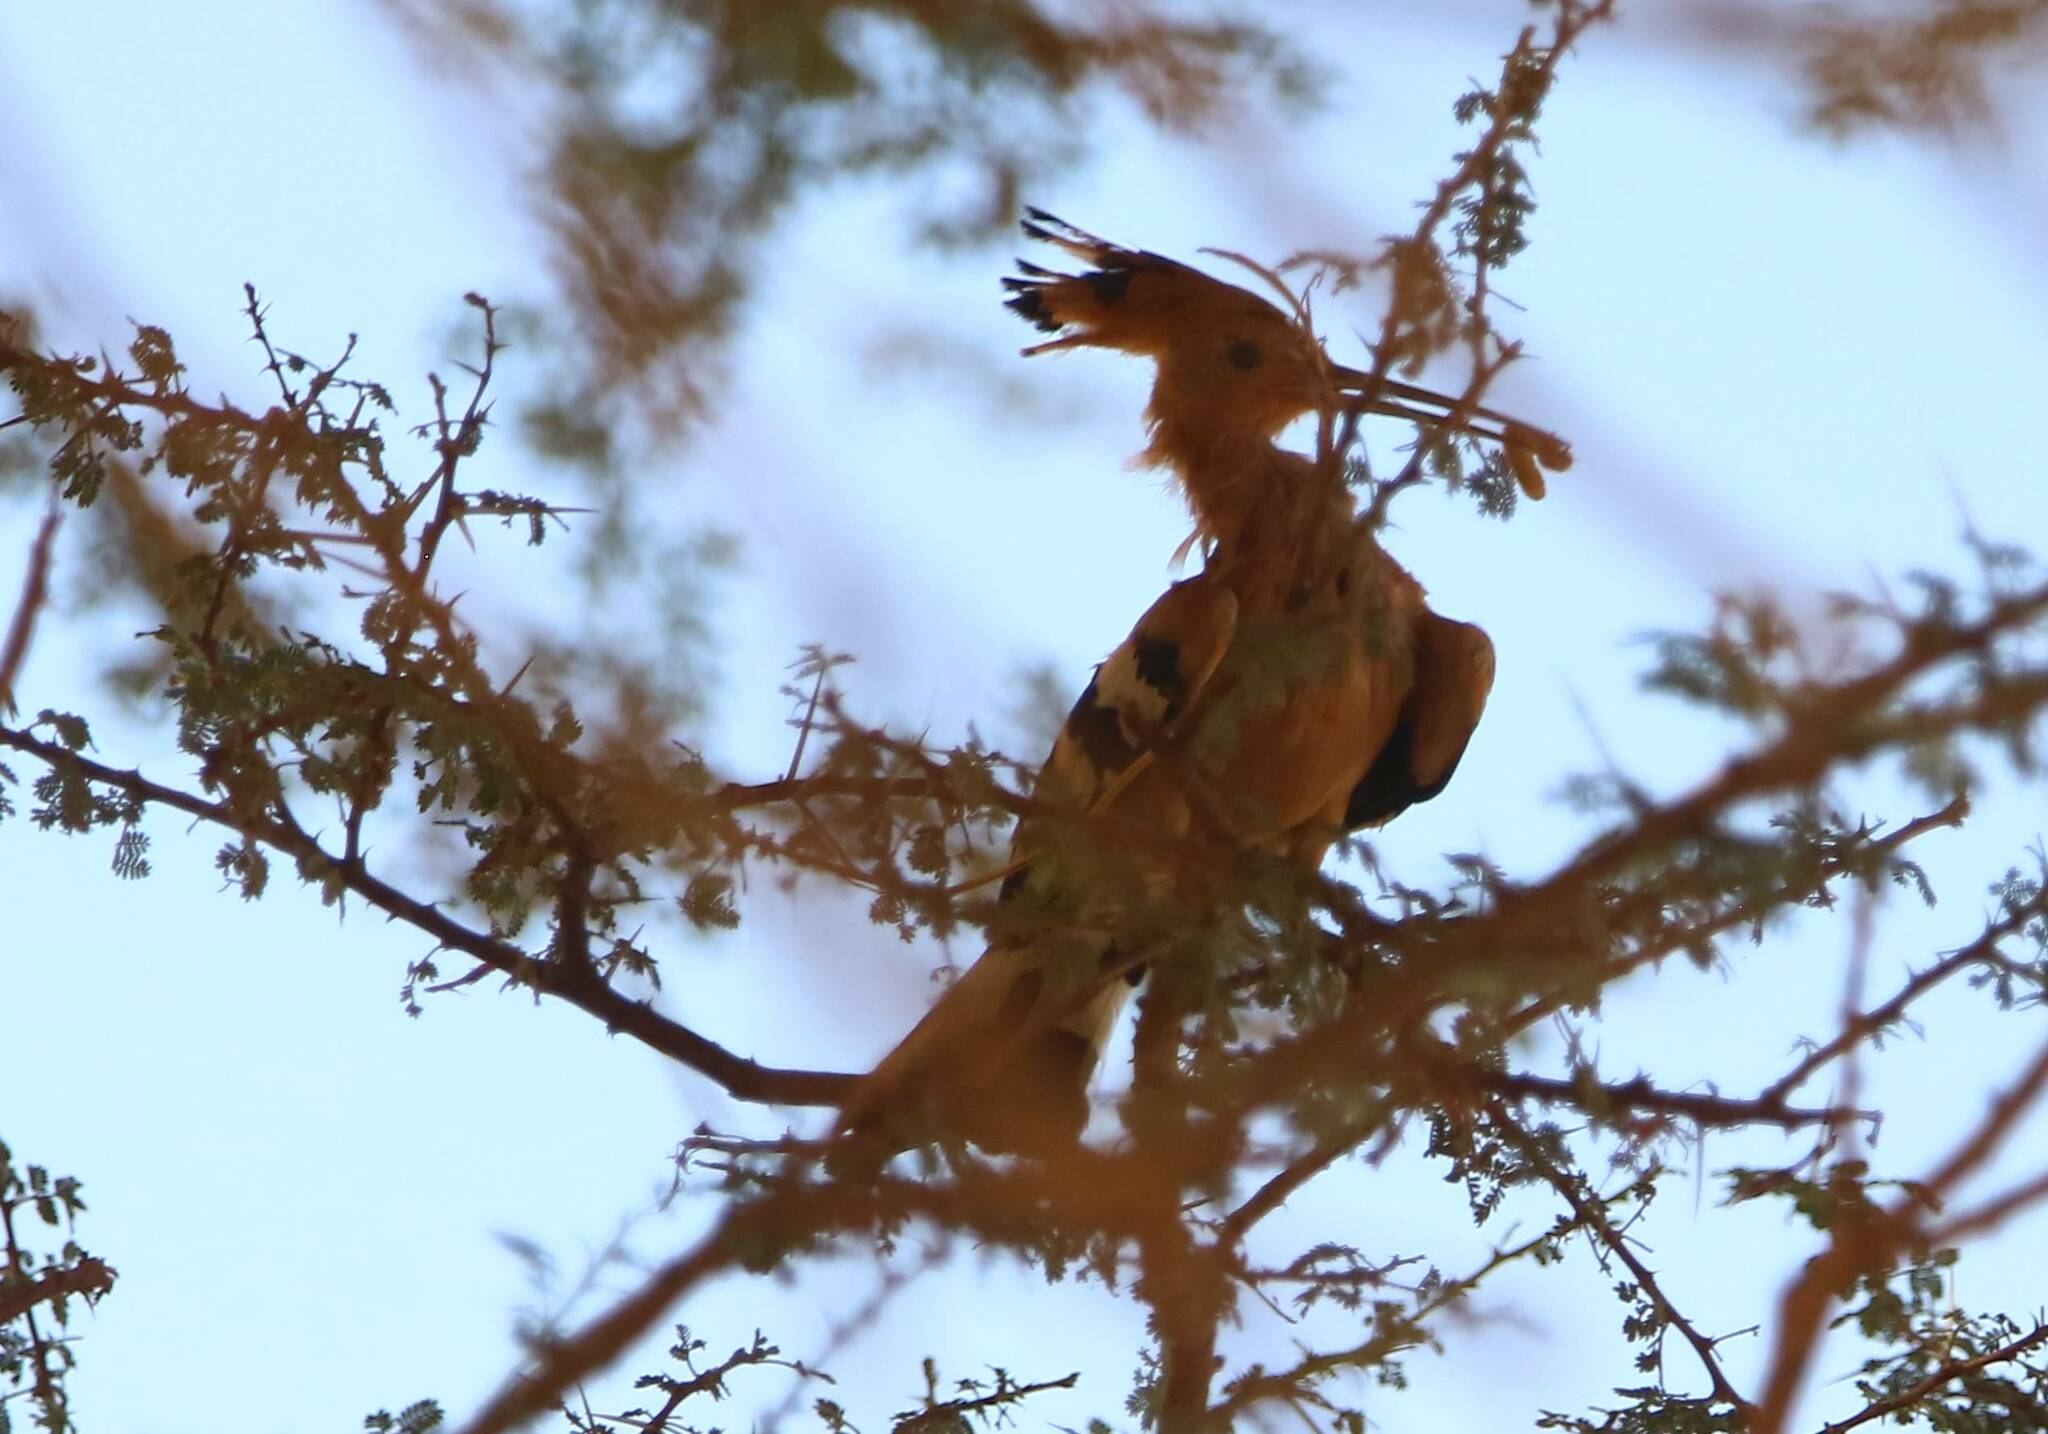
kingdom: Animalia
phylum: Chordata
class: Aves
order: Bucerotiformes
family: Upupidae
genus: Upupa
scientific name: Upupa epops
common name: Eurasian hoopoe
